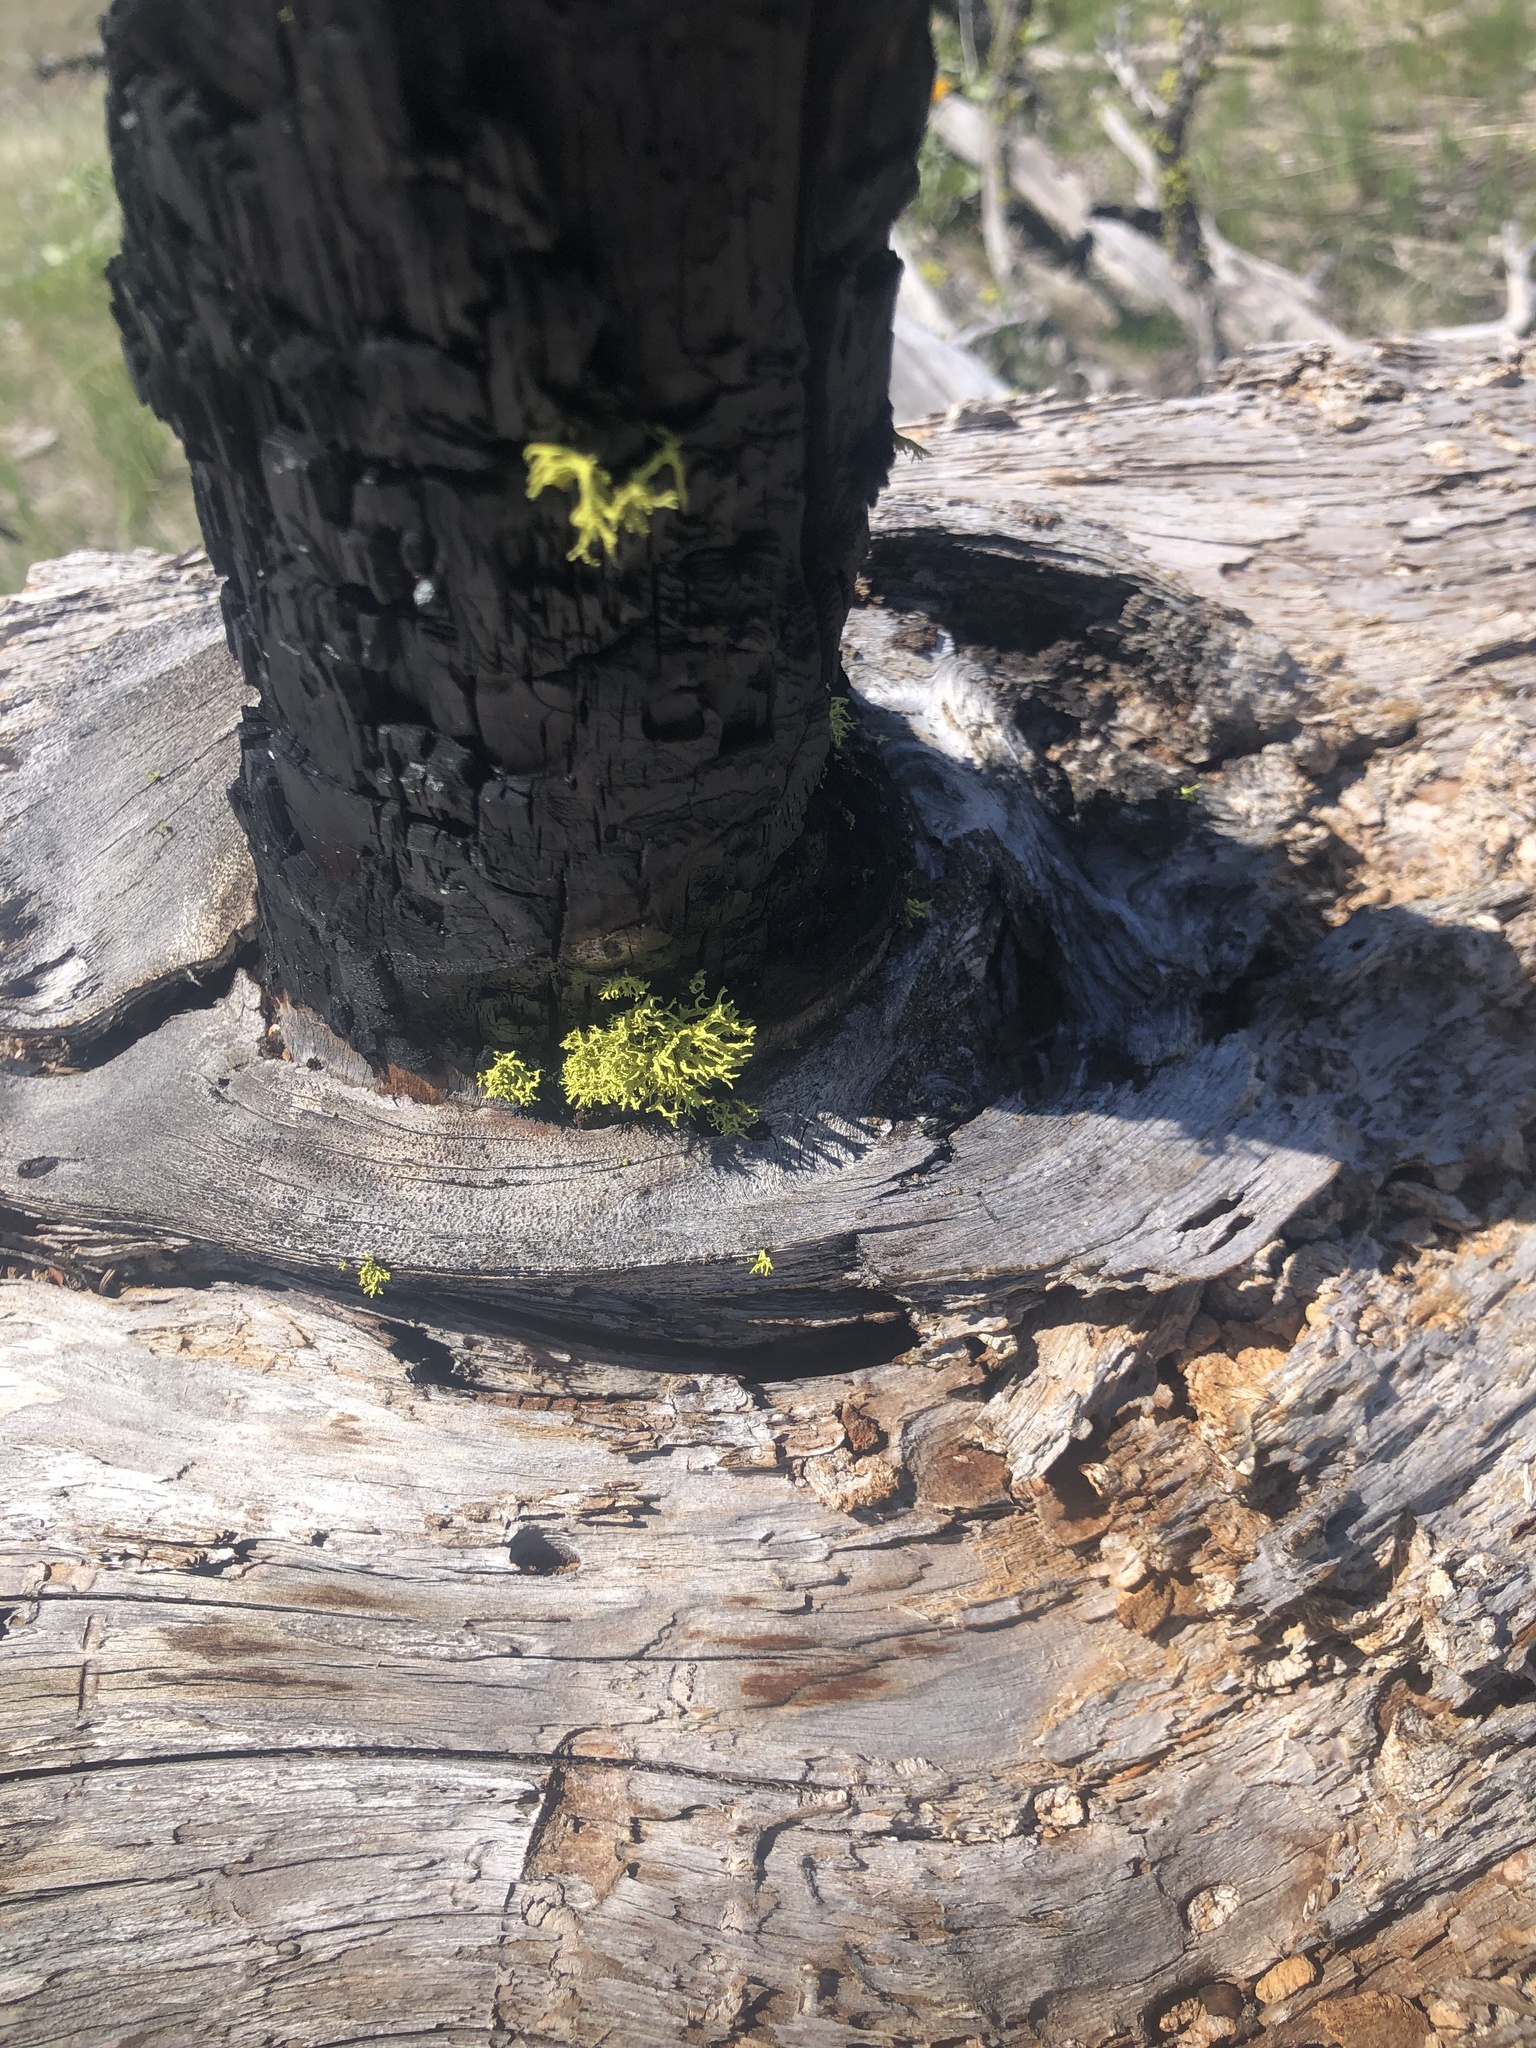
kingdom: Fungi
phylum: Ascomycota
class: Lecanoromycetes
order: Lecanorales
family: Parmeliaceae
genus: Letharia
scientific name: Letharia vulpina
